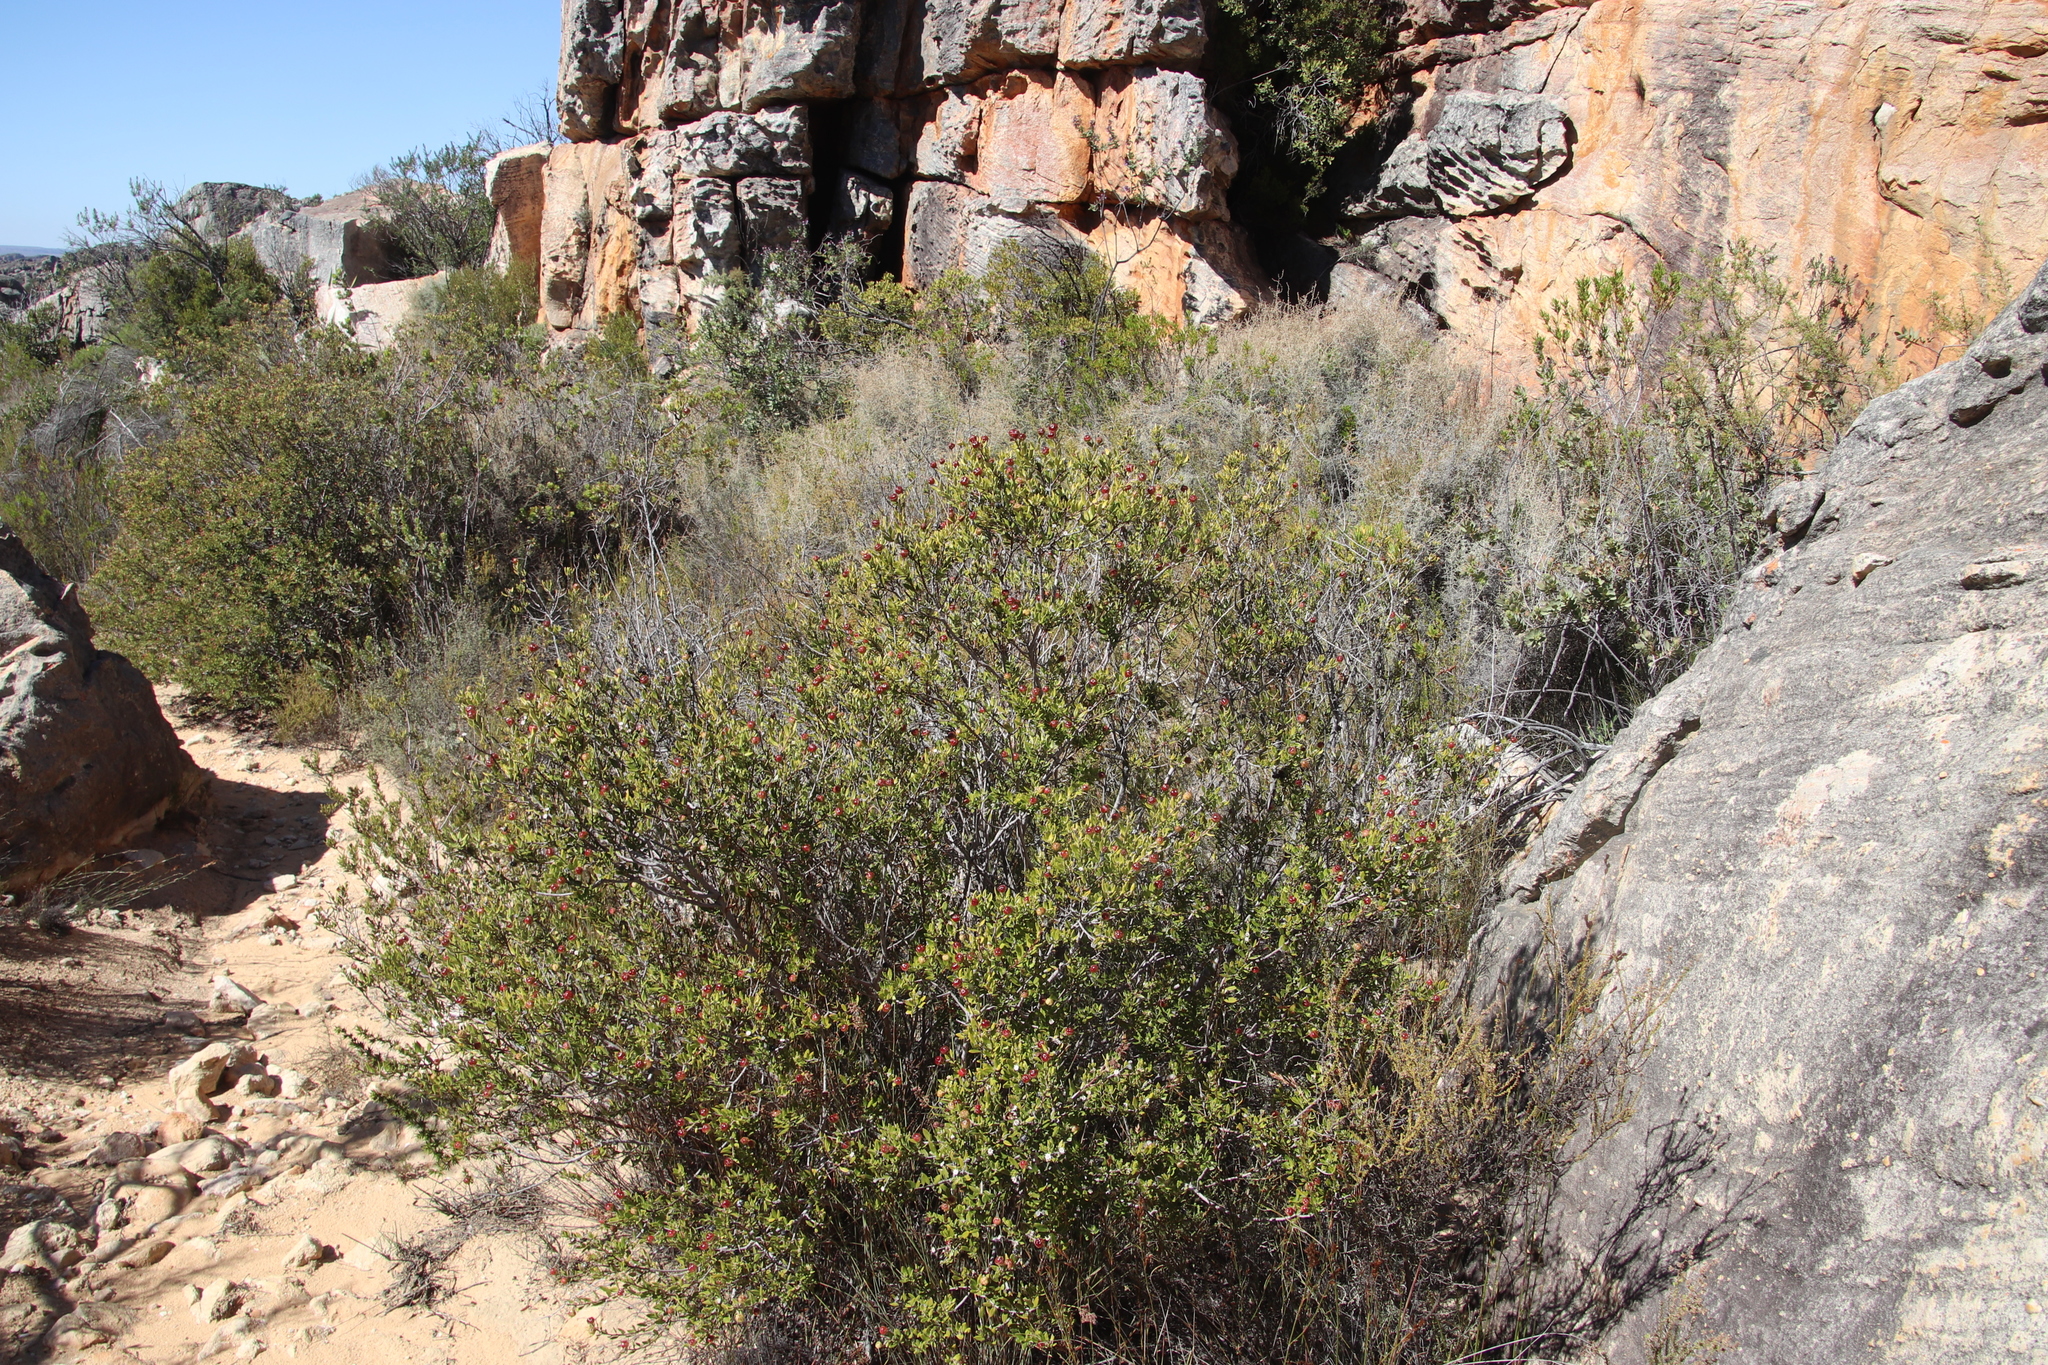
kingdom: Plantae
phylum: Tracheophyta
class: Magnoliopsida
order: Rosales
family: Rhamnaceae
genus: Phylica
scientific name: Phylica oleifolia
